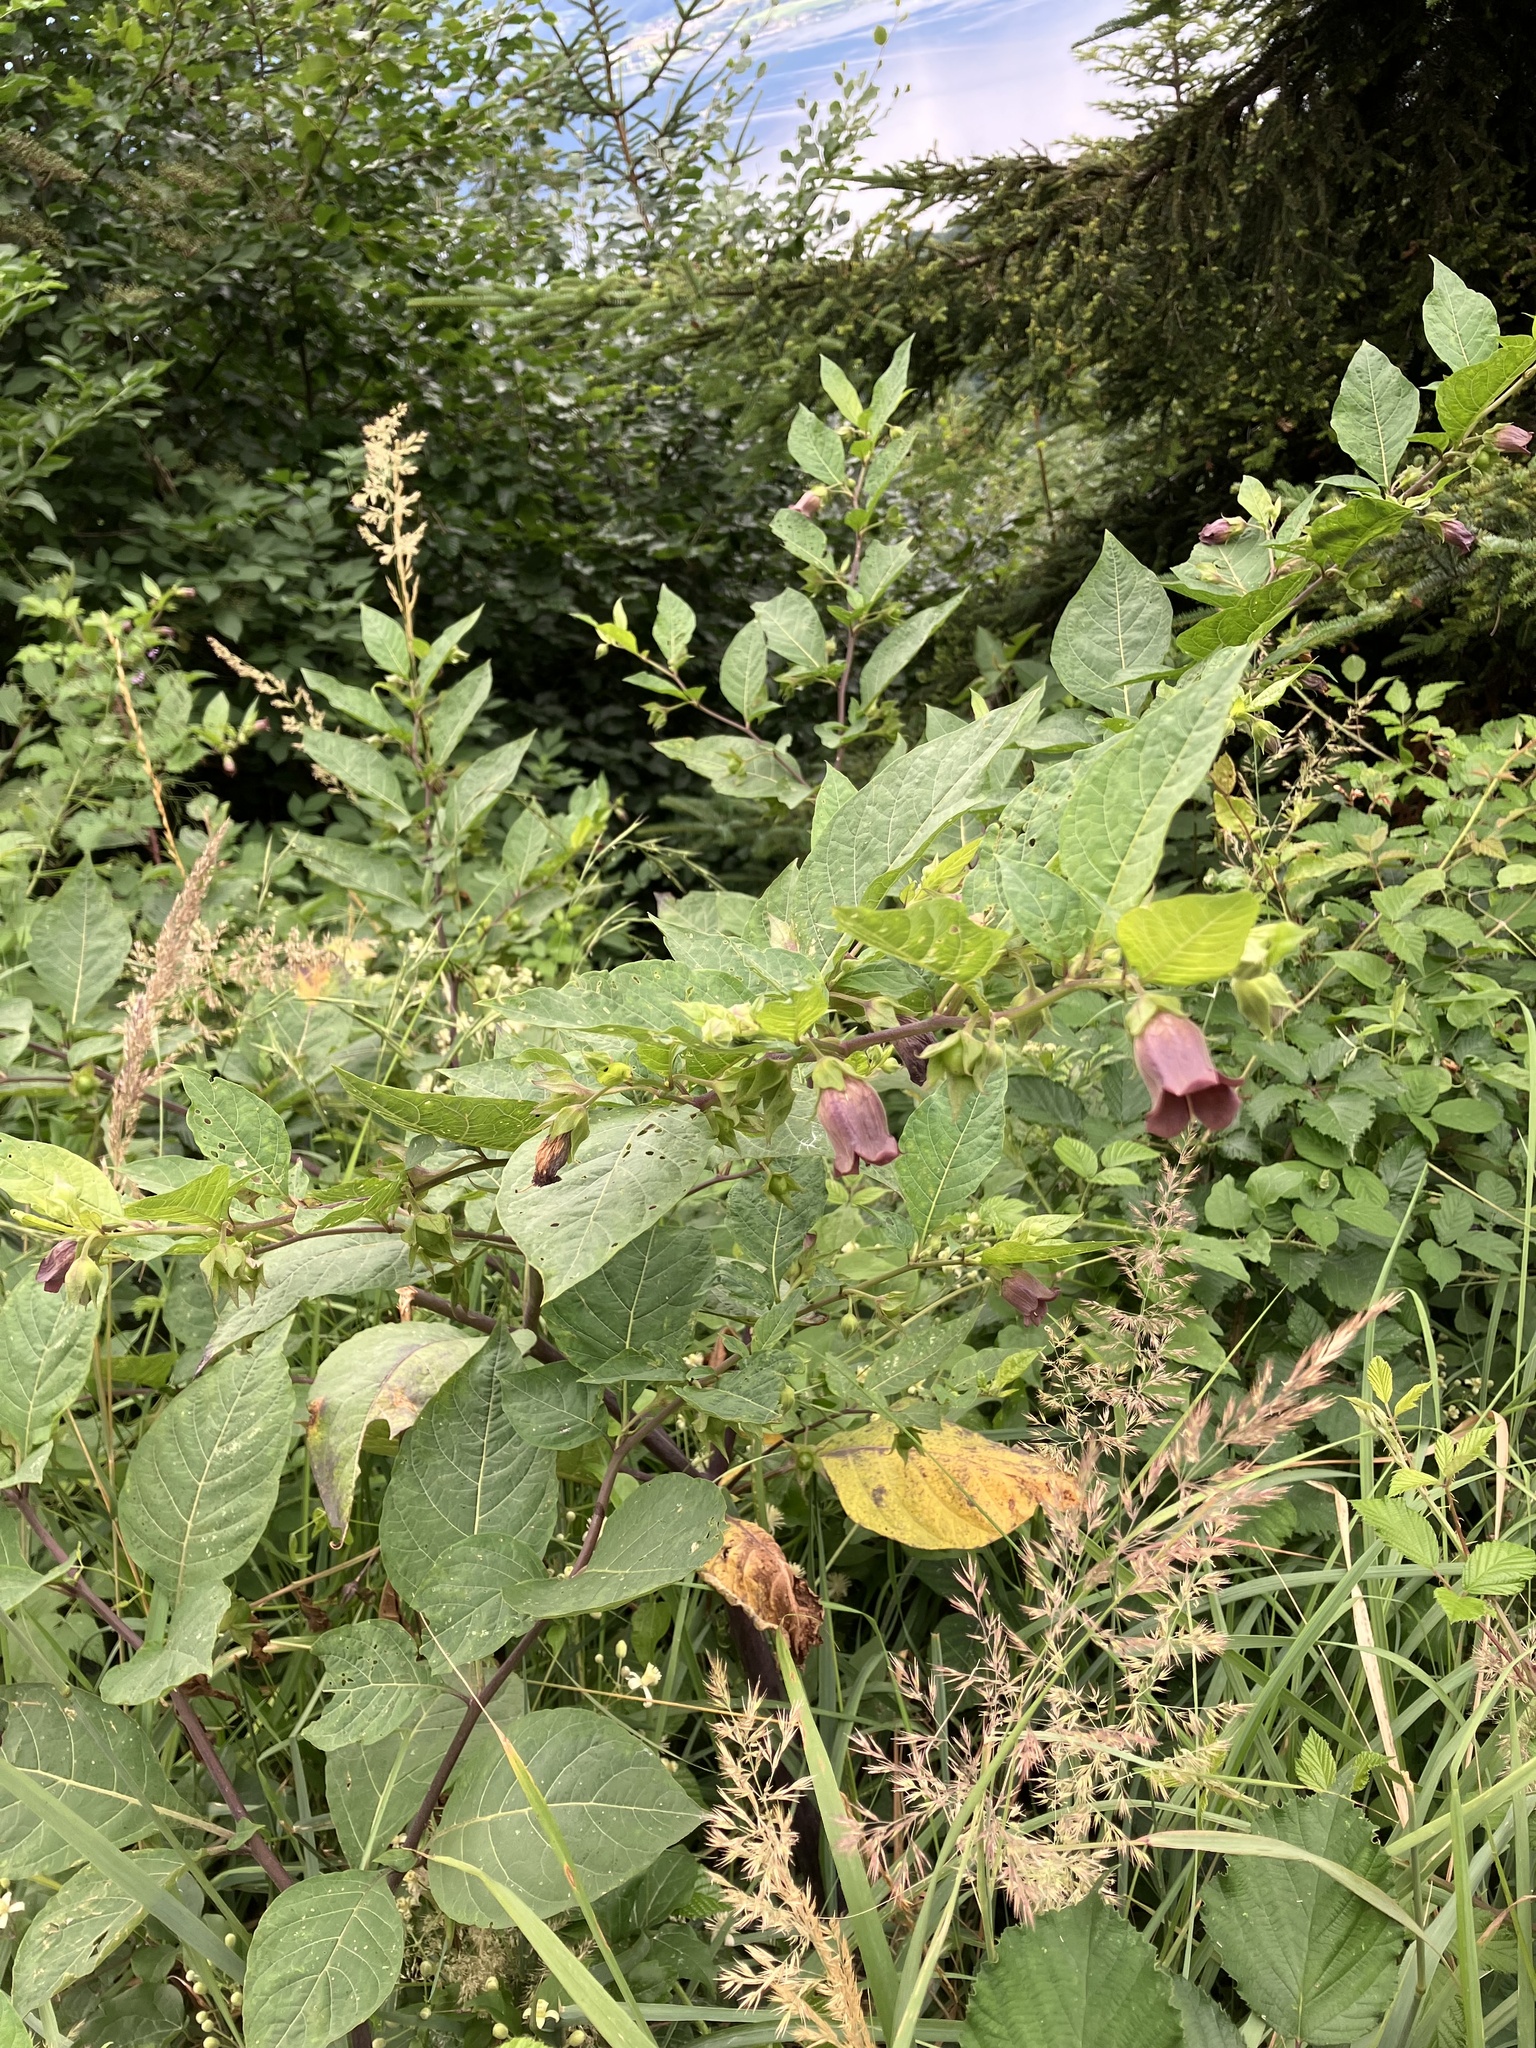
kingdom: Plantae
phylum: Tracheophyta
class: Magnoliopsida
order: Solanales
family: Solanaceae
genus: Atropa
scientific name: Atropa belladonna
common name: Deadly nightshade
